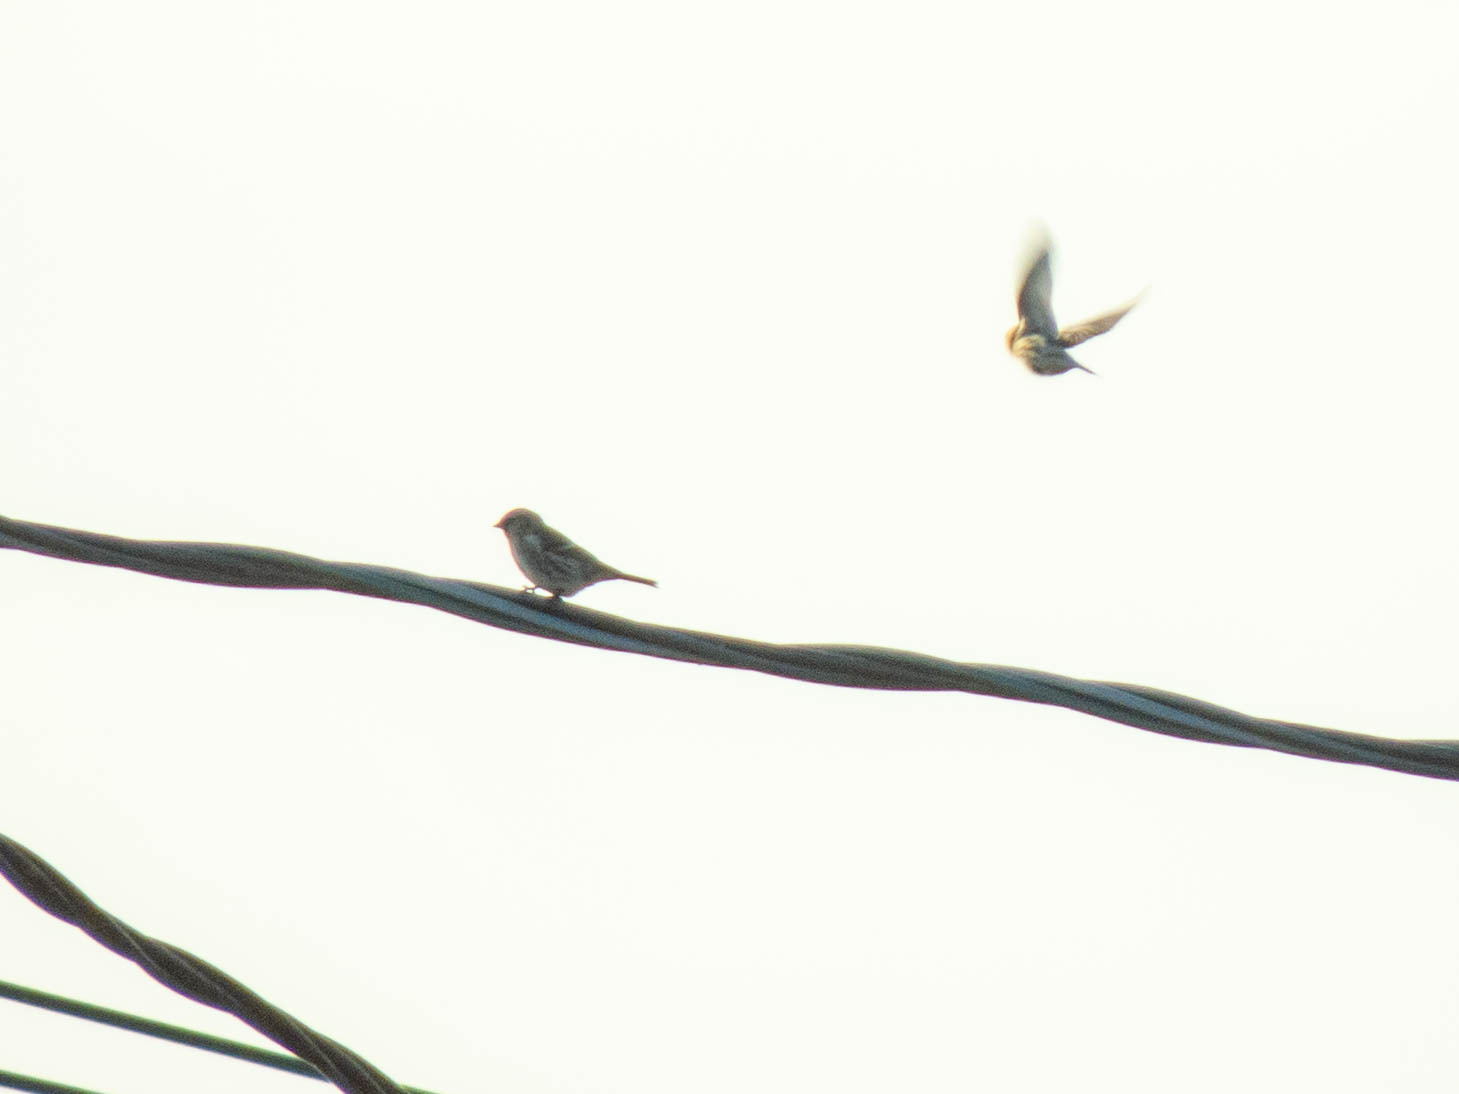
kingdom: Animalia
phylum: Chordata
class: Aves
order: Passeriformes
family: Fringillidae
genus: Acanthis
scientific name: Acanthis flammea
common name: Common redpoll
